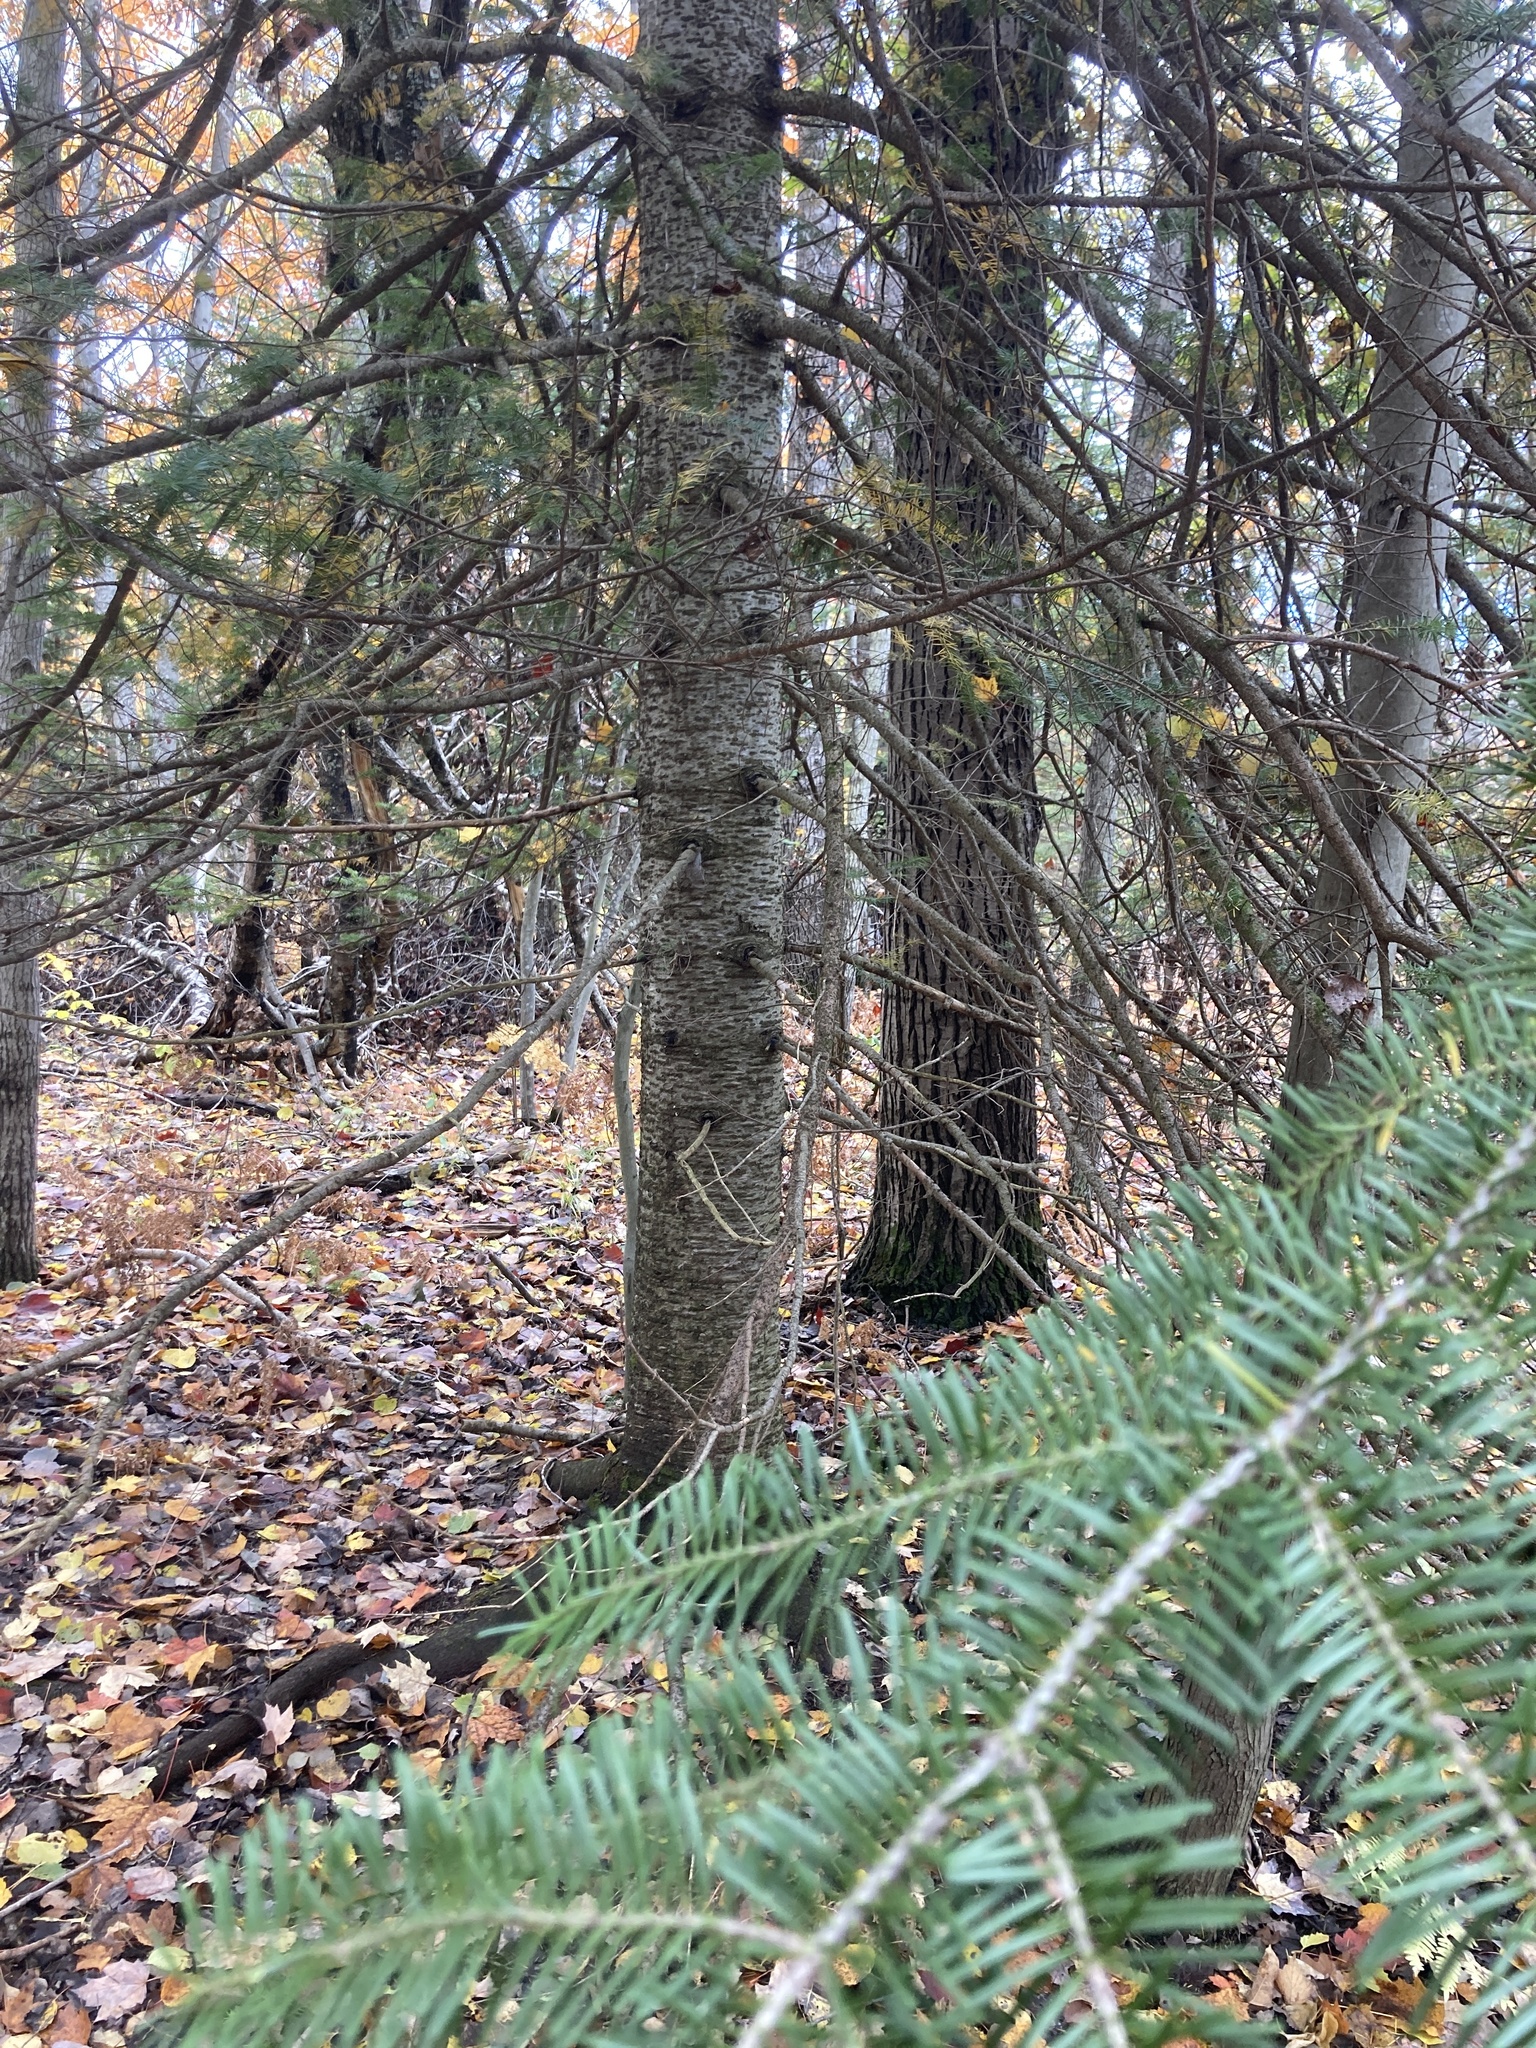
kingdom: Plantae
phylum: Tracheophyta
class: Pinopsida
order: Pinales
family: Pinaceae
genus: Abies
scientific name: Abies balsamea
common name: Balsam fir
